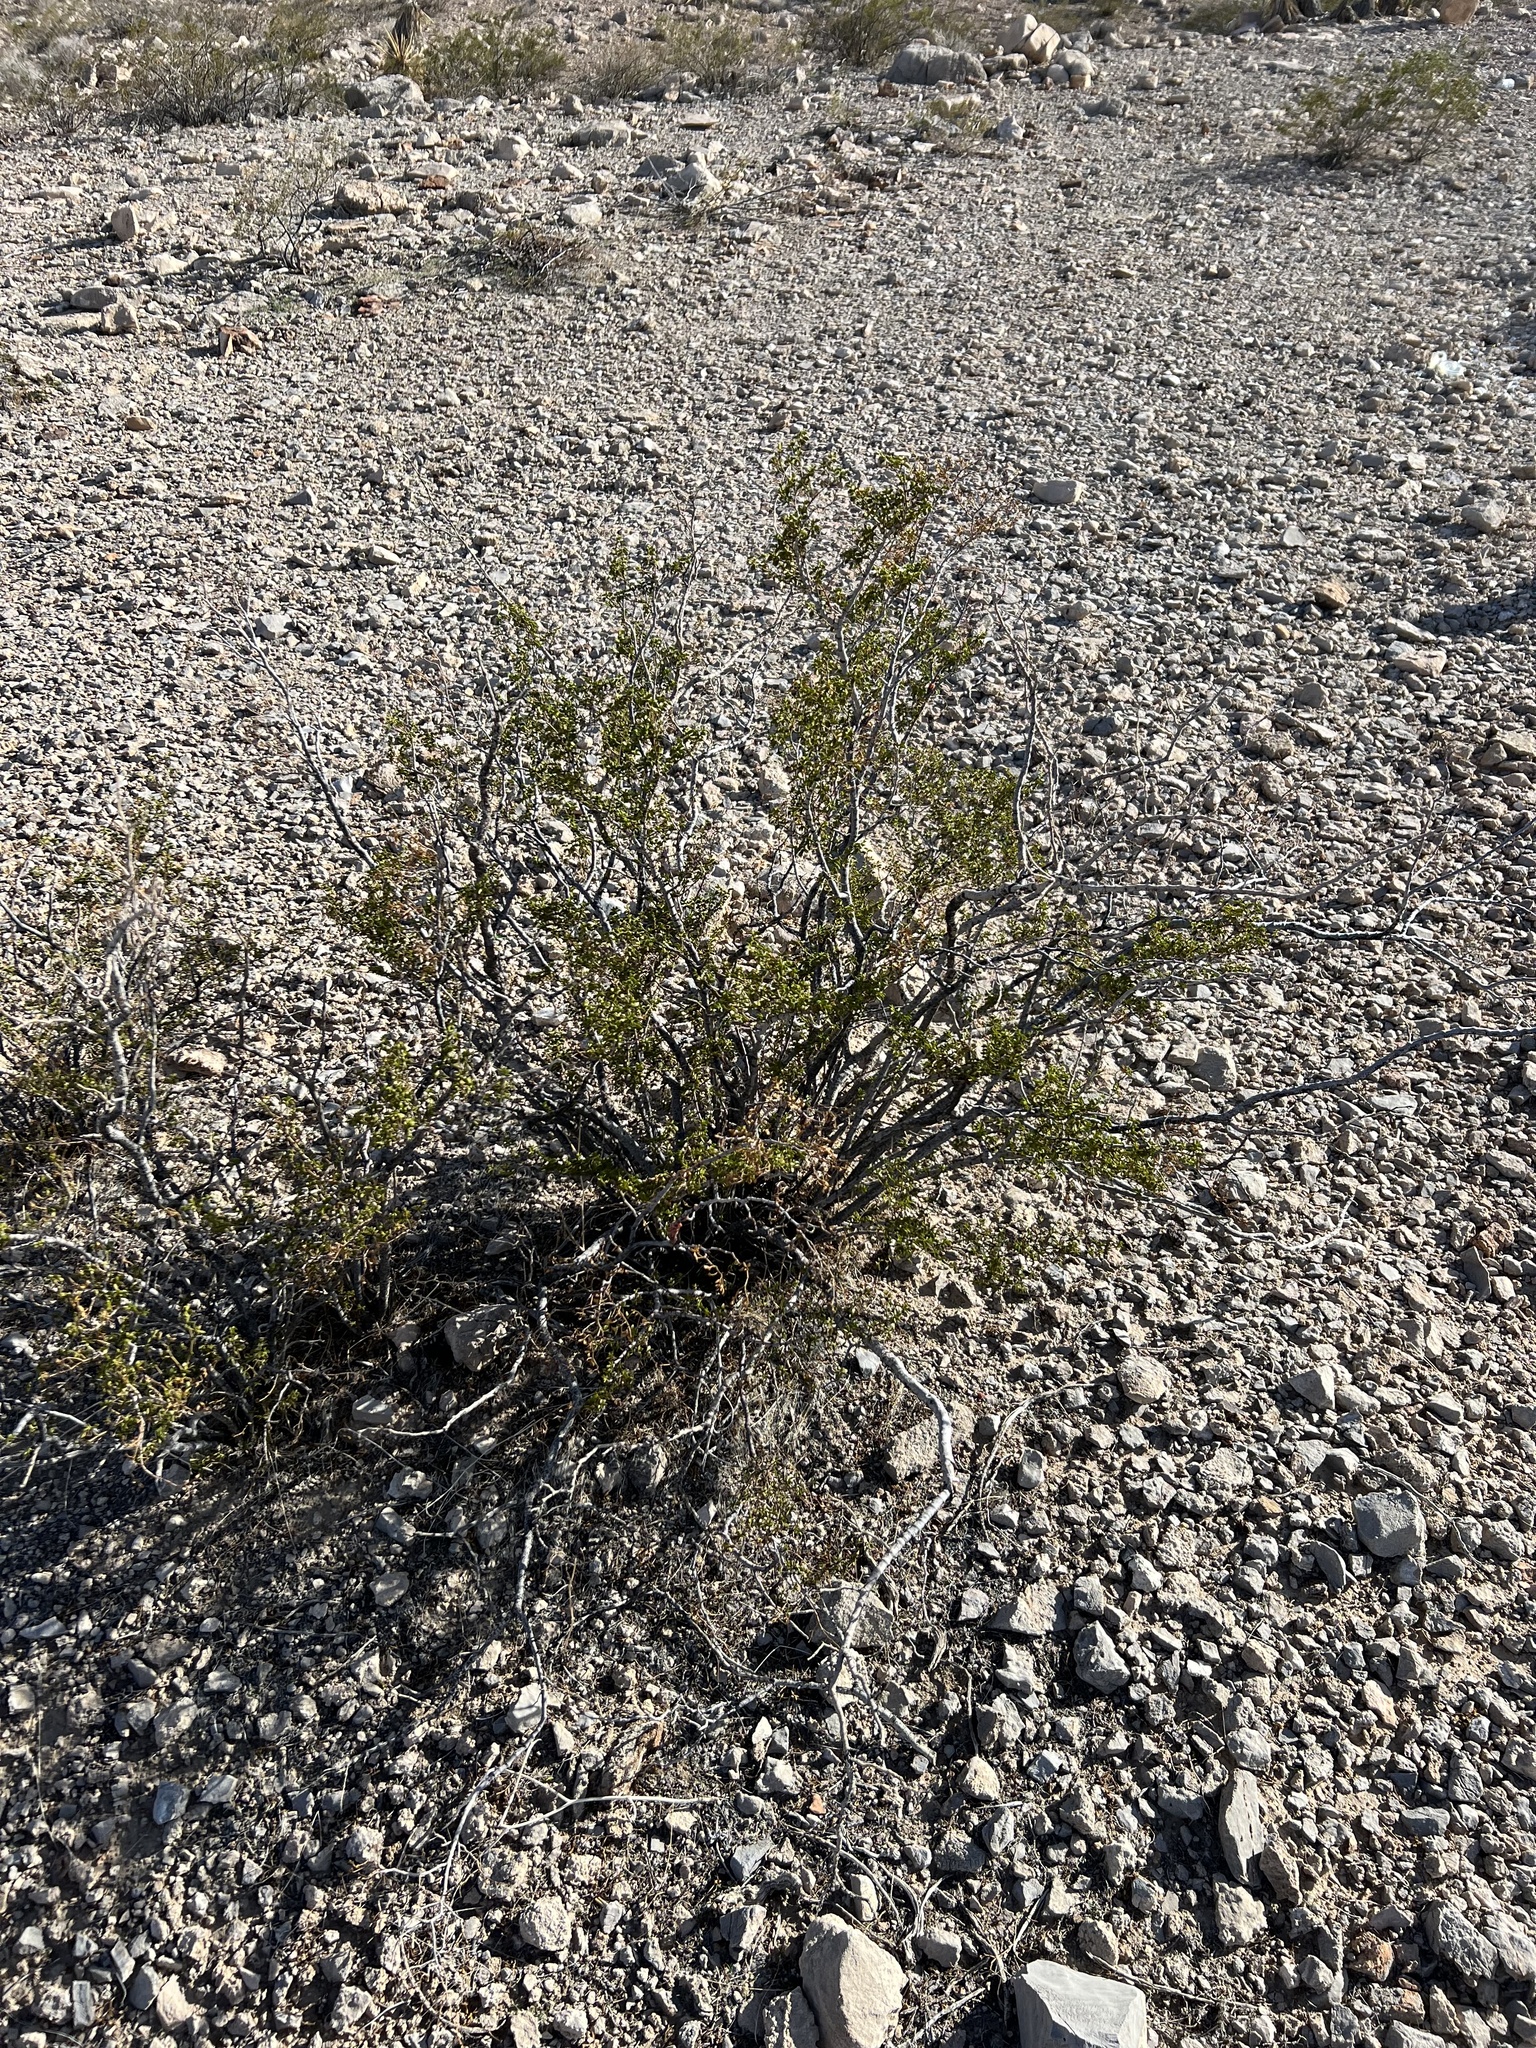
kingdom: Plantae
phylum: Tracheophyta
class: Magnoliopsida
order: Zygophyllales
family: Zygophyllaceae
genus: Larrea
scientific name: Larrea tridentata
